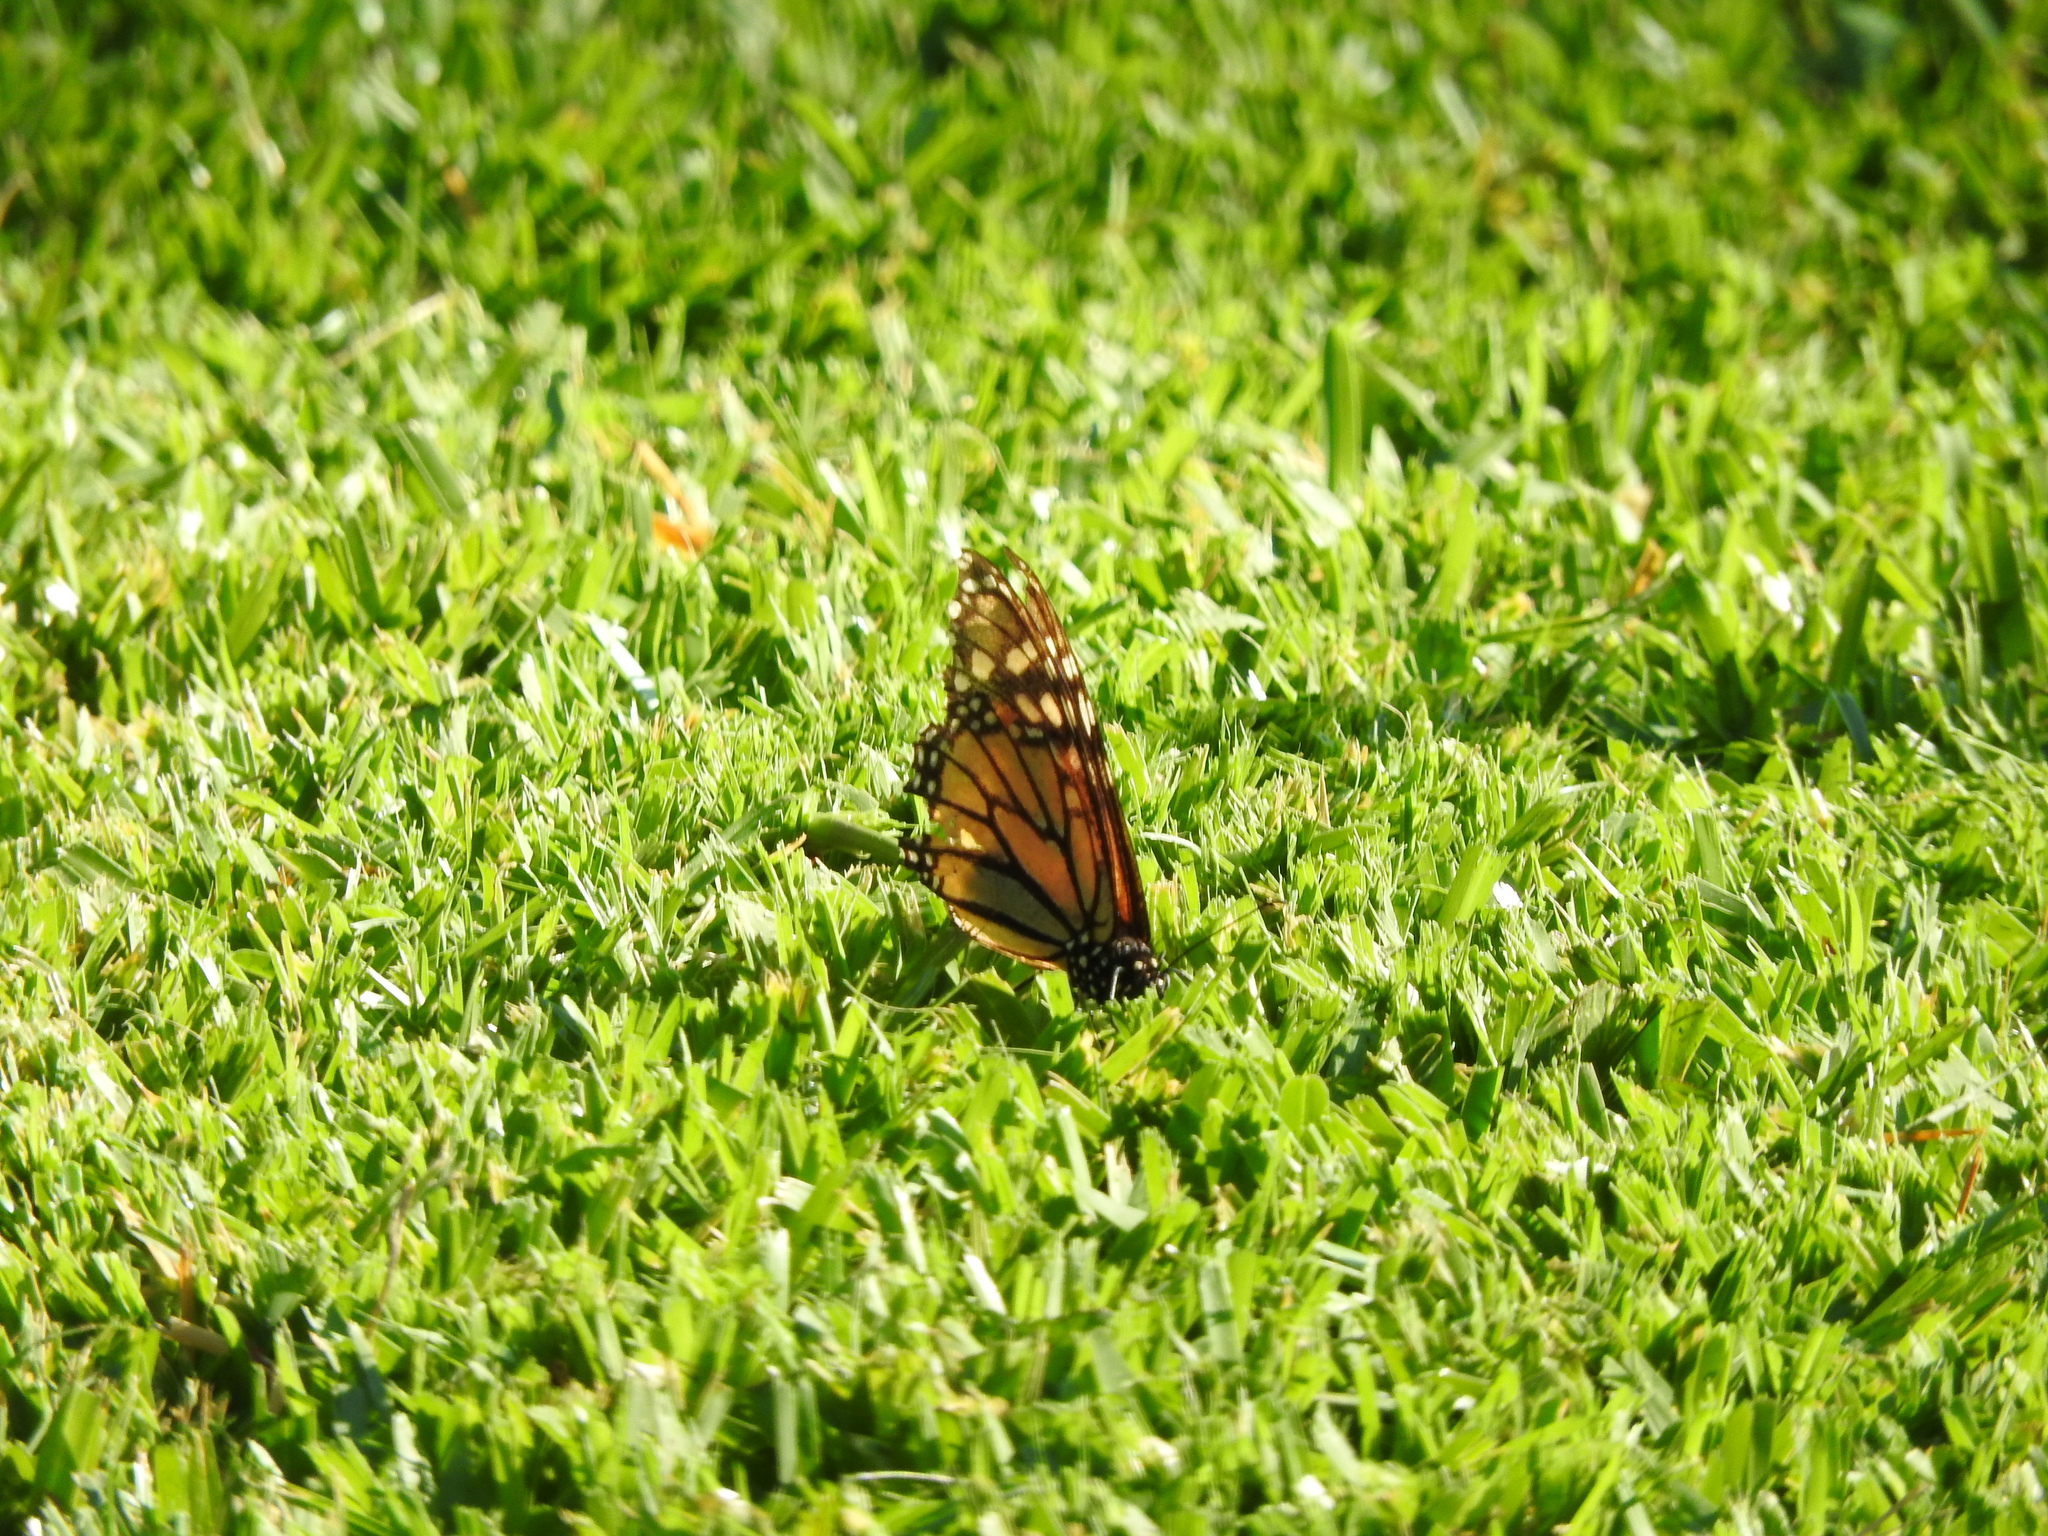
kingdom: Animalia
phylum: Arthropoda
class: Insecta
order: Lepidoptera
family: Nymphalidae
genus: Danaus
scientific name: Danaus plexippus
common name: Monarch
